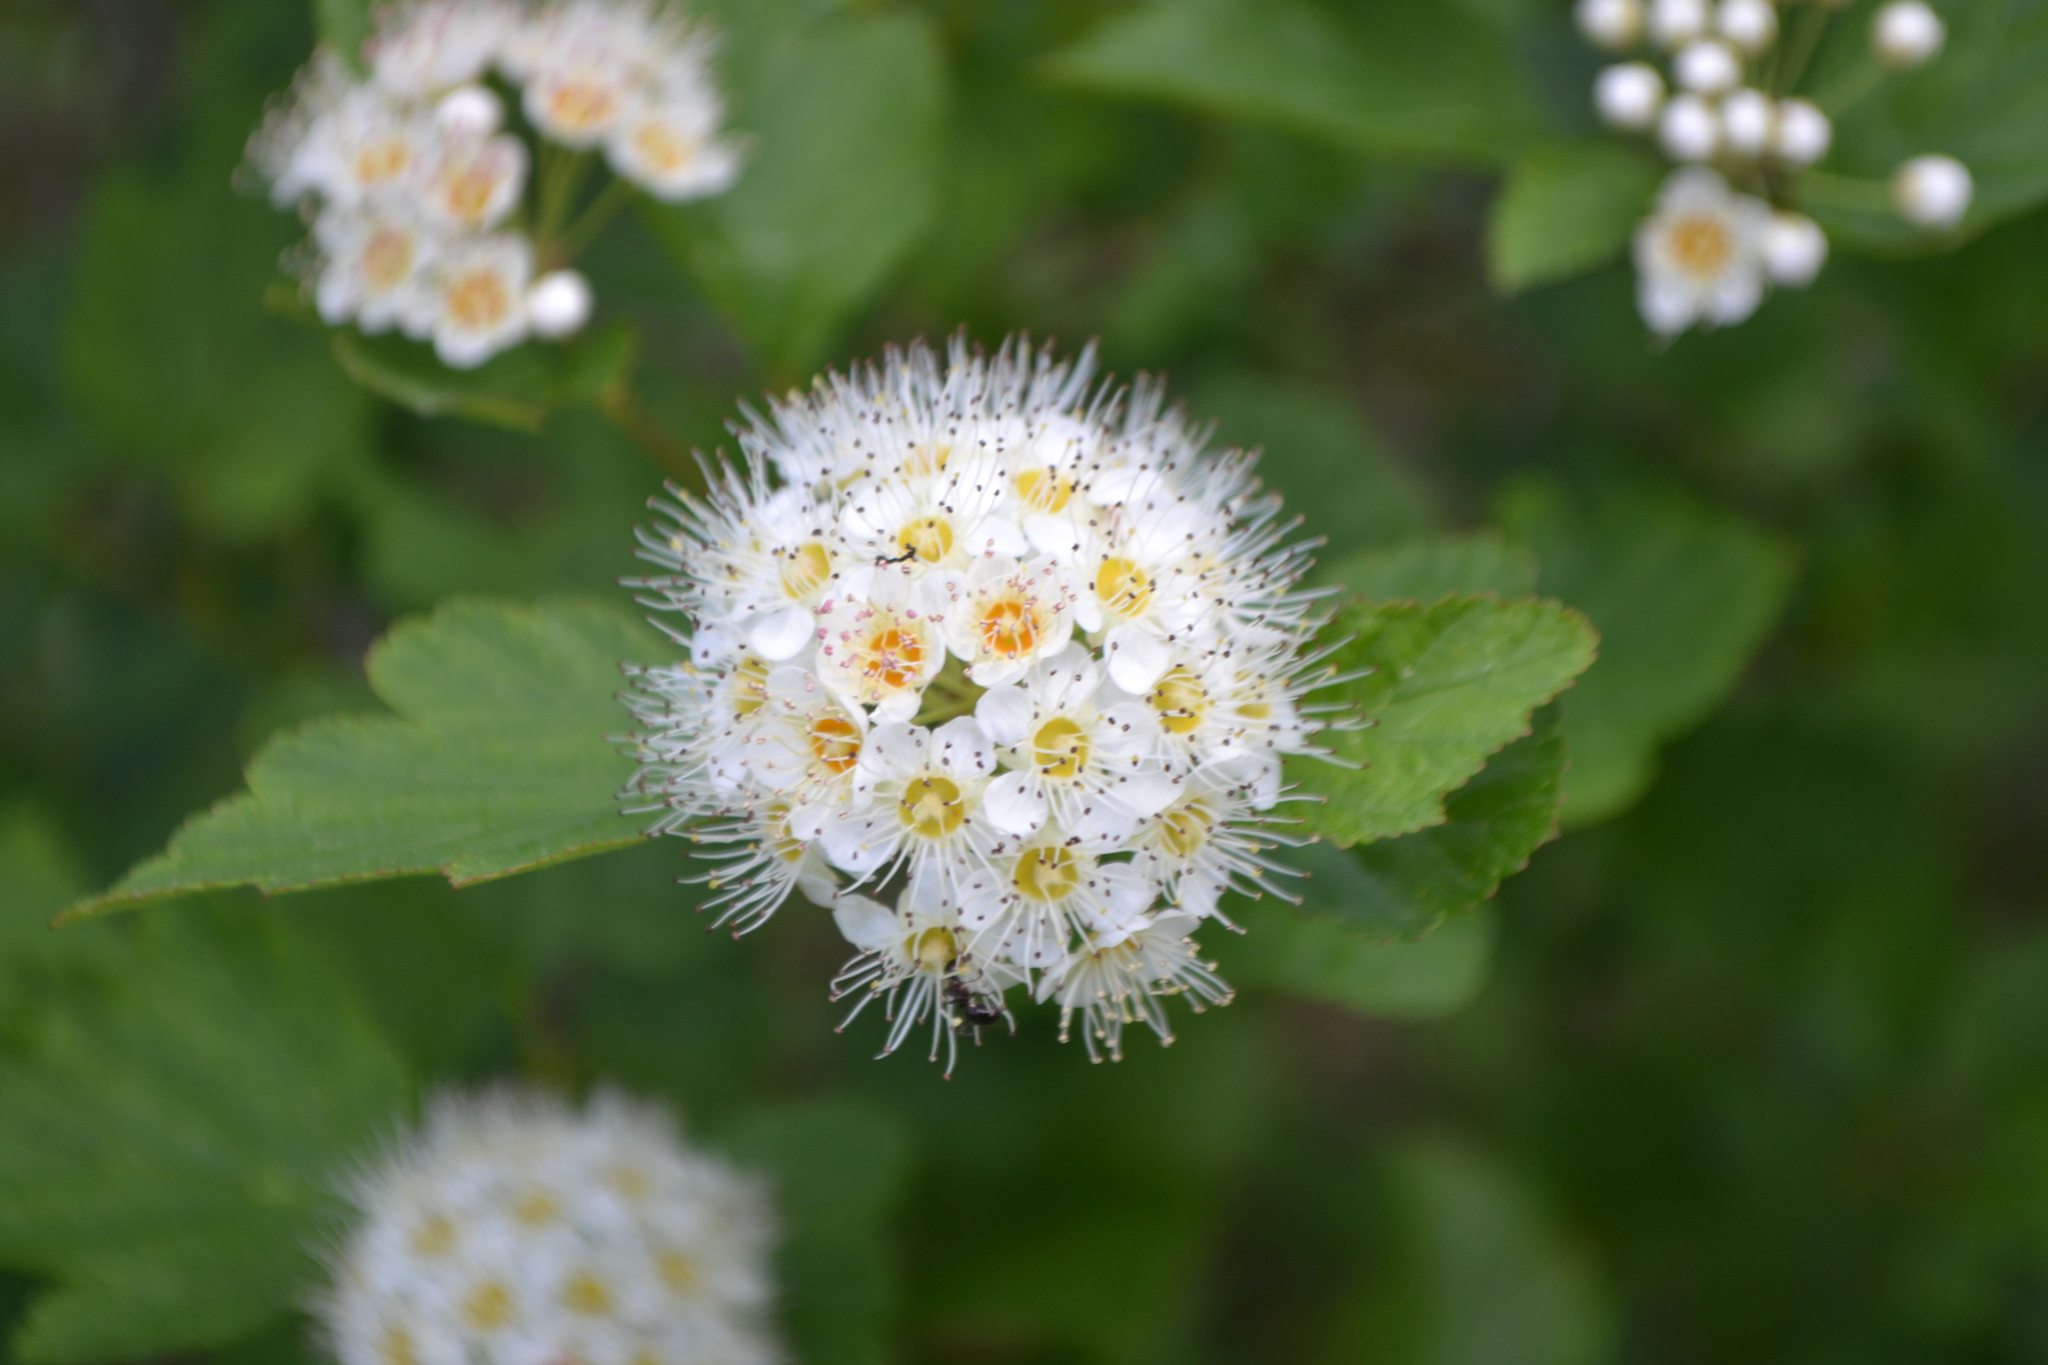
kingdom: Plantae
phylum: Tracheophyta
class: Magnoliopsida
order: Rosales
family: Rosaceae
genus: Physocarpus
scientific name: Physocarpus opulifolius
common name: Ninebark
